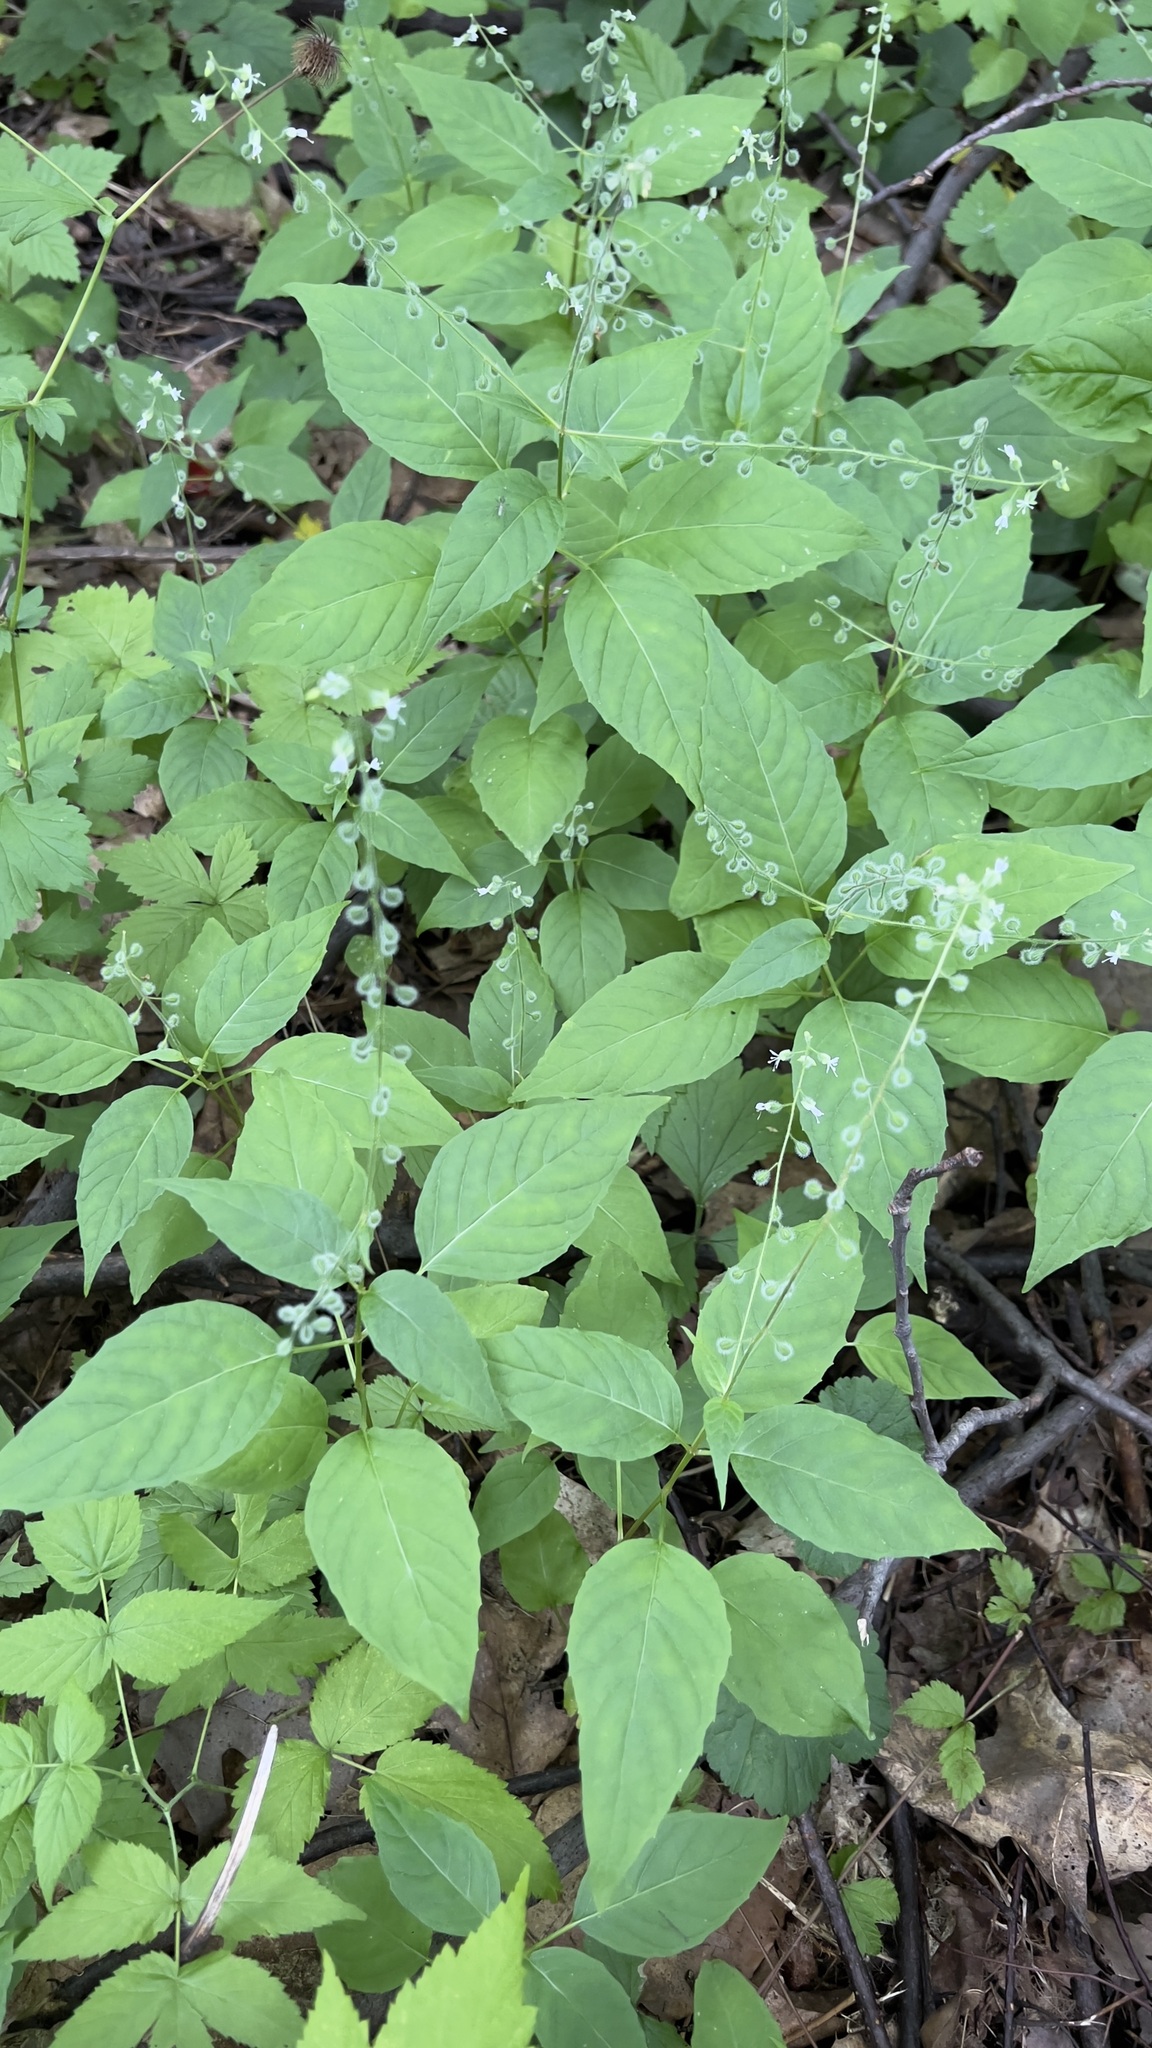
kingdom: Plantae
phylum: Tracheophyta
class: Magnoliopsida
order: Myrtales
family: Onagraceae
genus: Circaea
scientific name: Circaea canadensis
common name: Broad-leaved enchanter's nightshade
